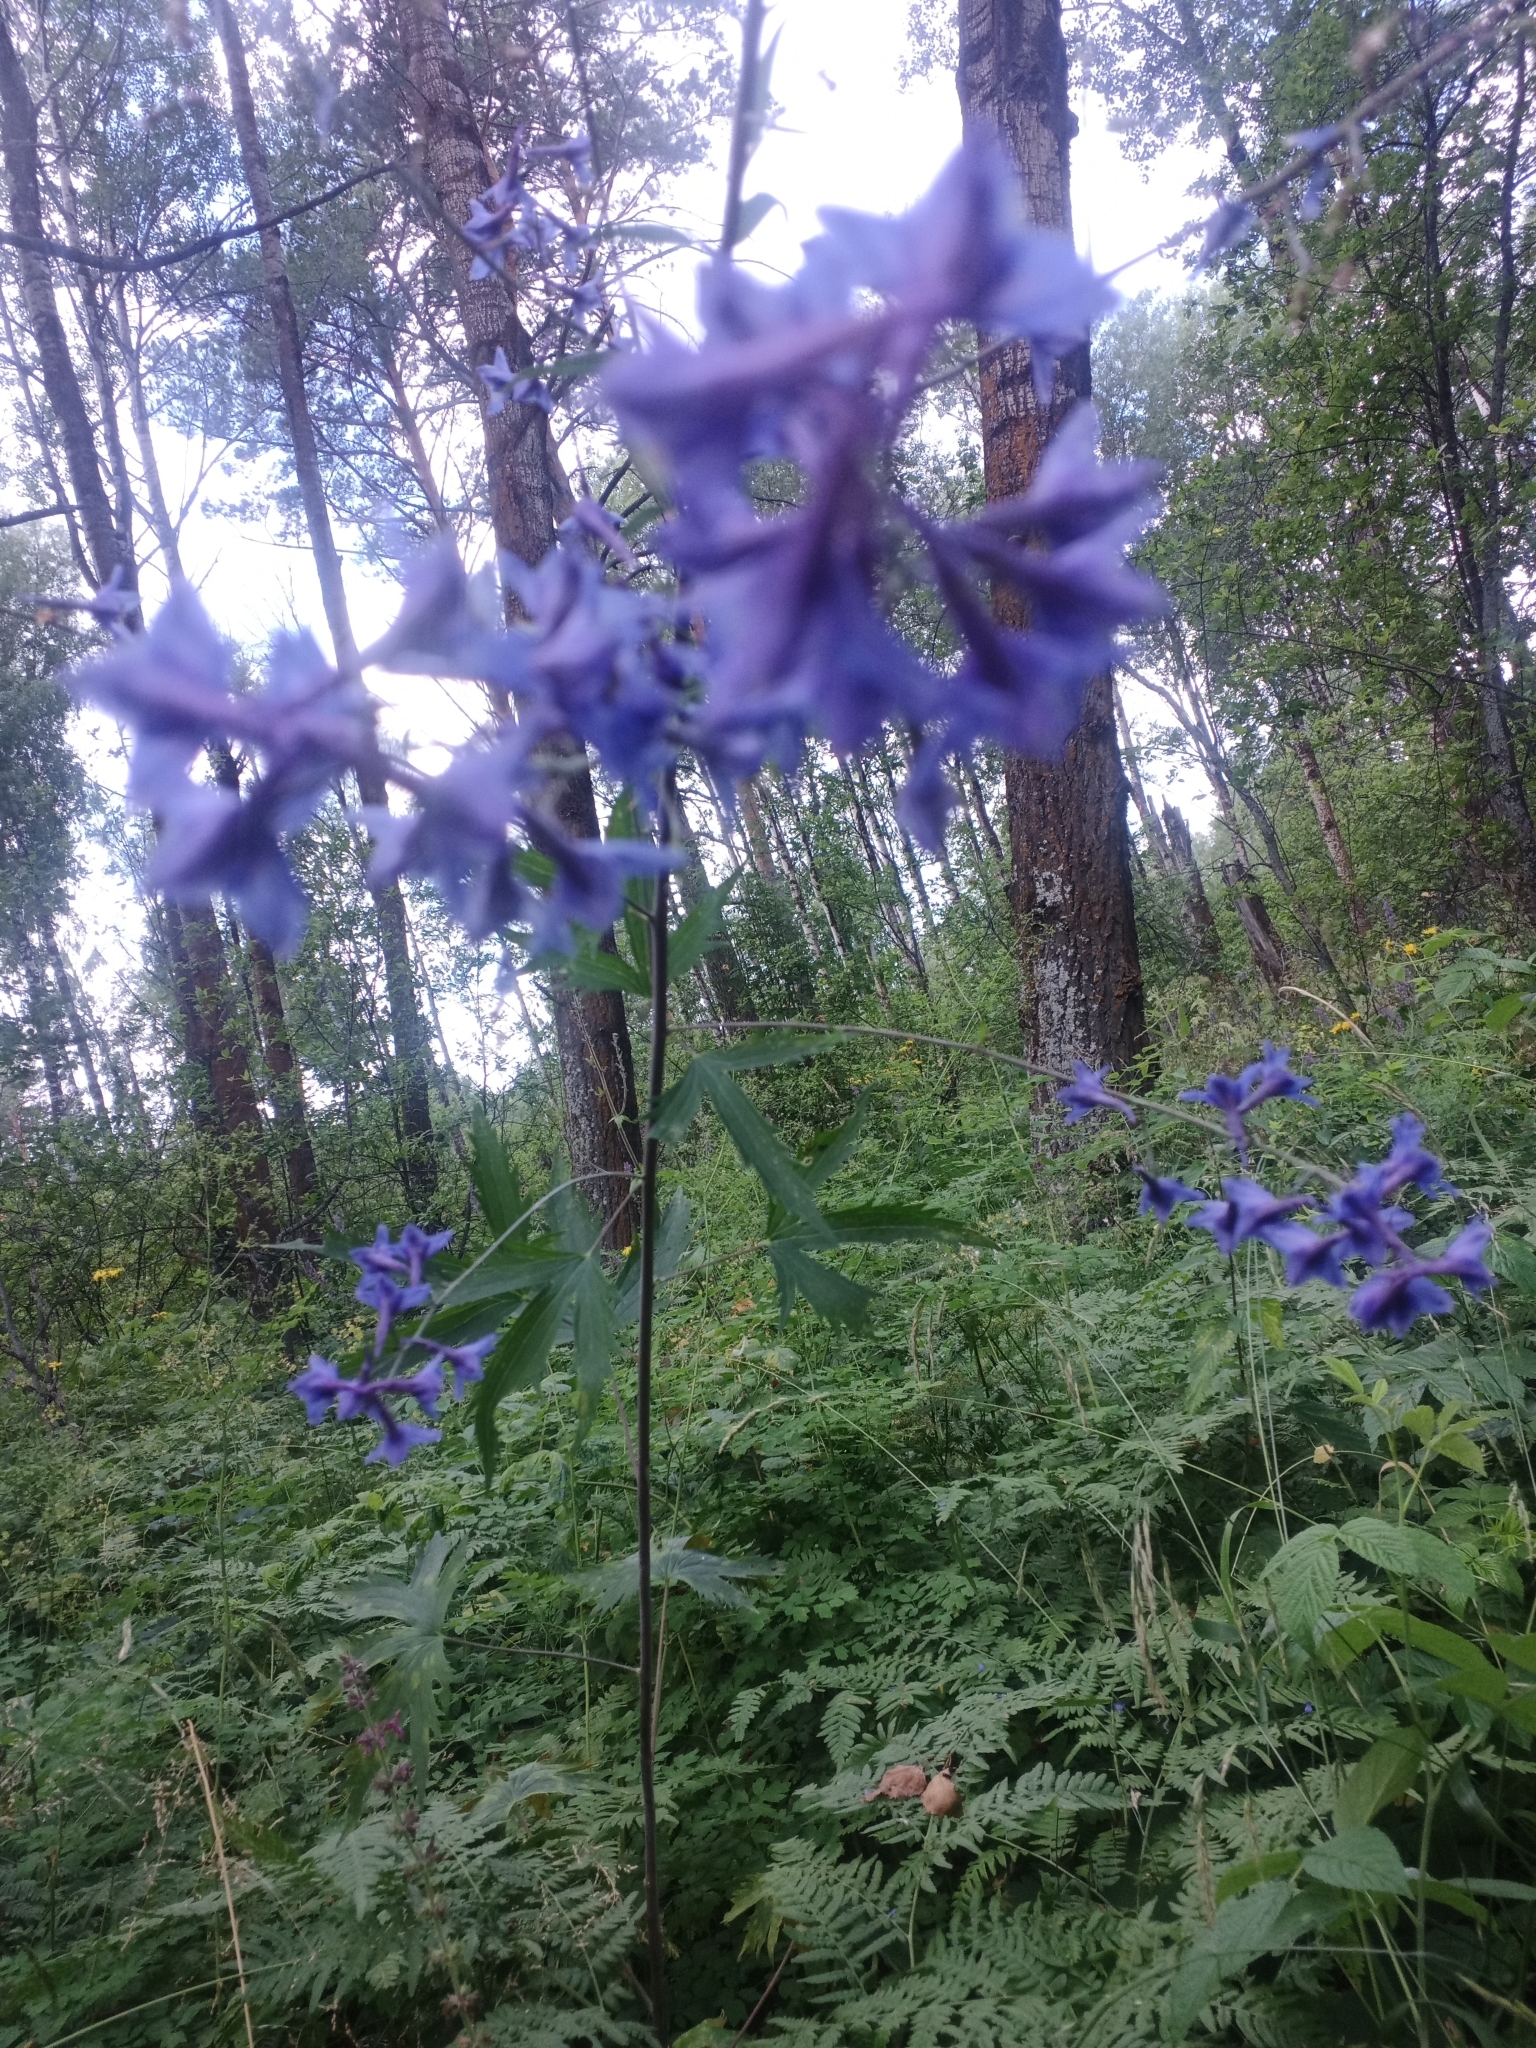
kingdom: Plantae
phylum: Tracheophyta
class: Magnoliopsida
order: Ranunculales
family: Ranunculaceae
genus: Delphinium
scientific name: Delphinium elatum
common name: Candle larkspur
